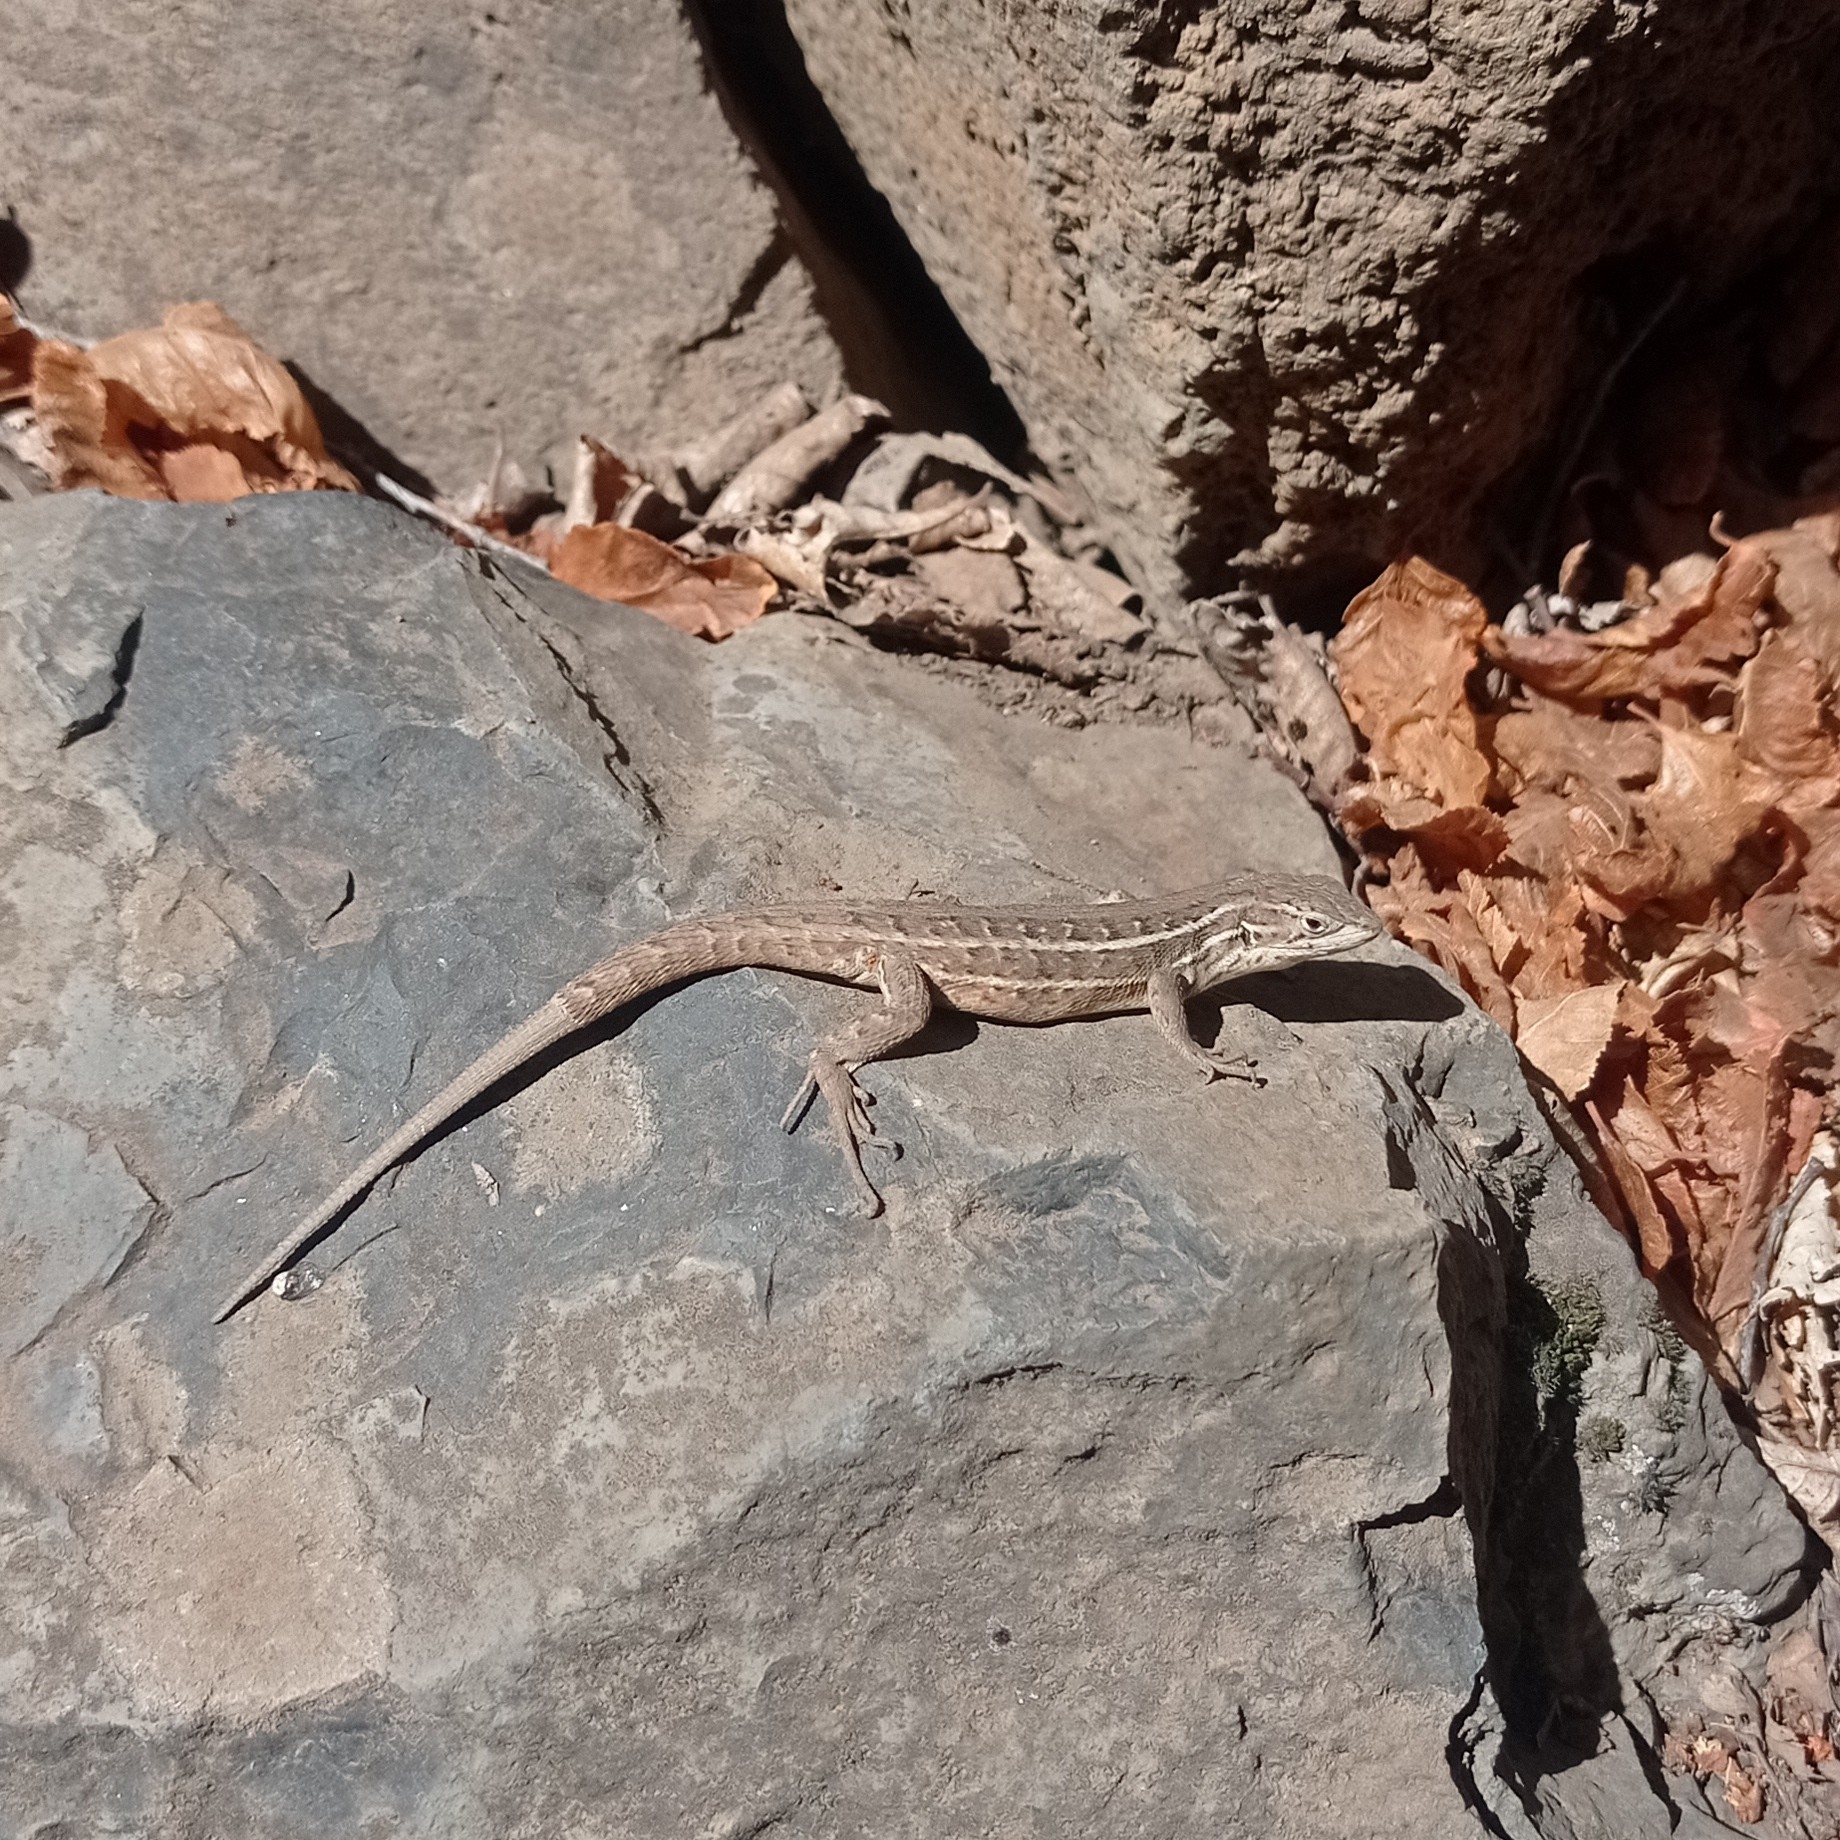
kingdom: Animalia
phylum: Chordata
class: Squamata
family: Liolaemidae
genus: Liolaemus
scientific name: Liolaemus lemniscatus
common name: Wreath tree iguana
